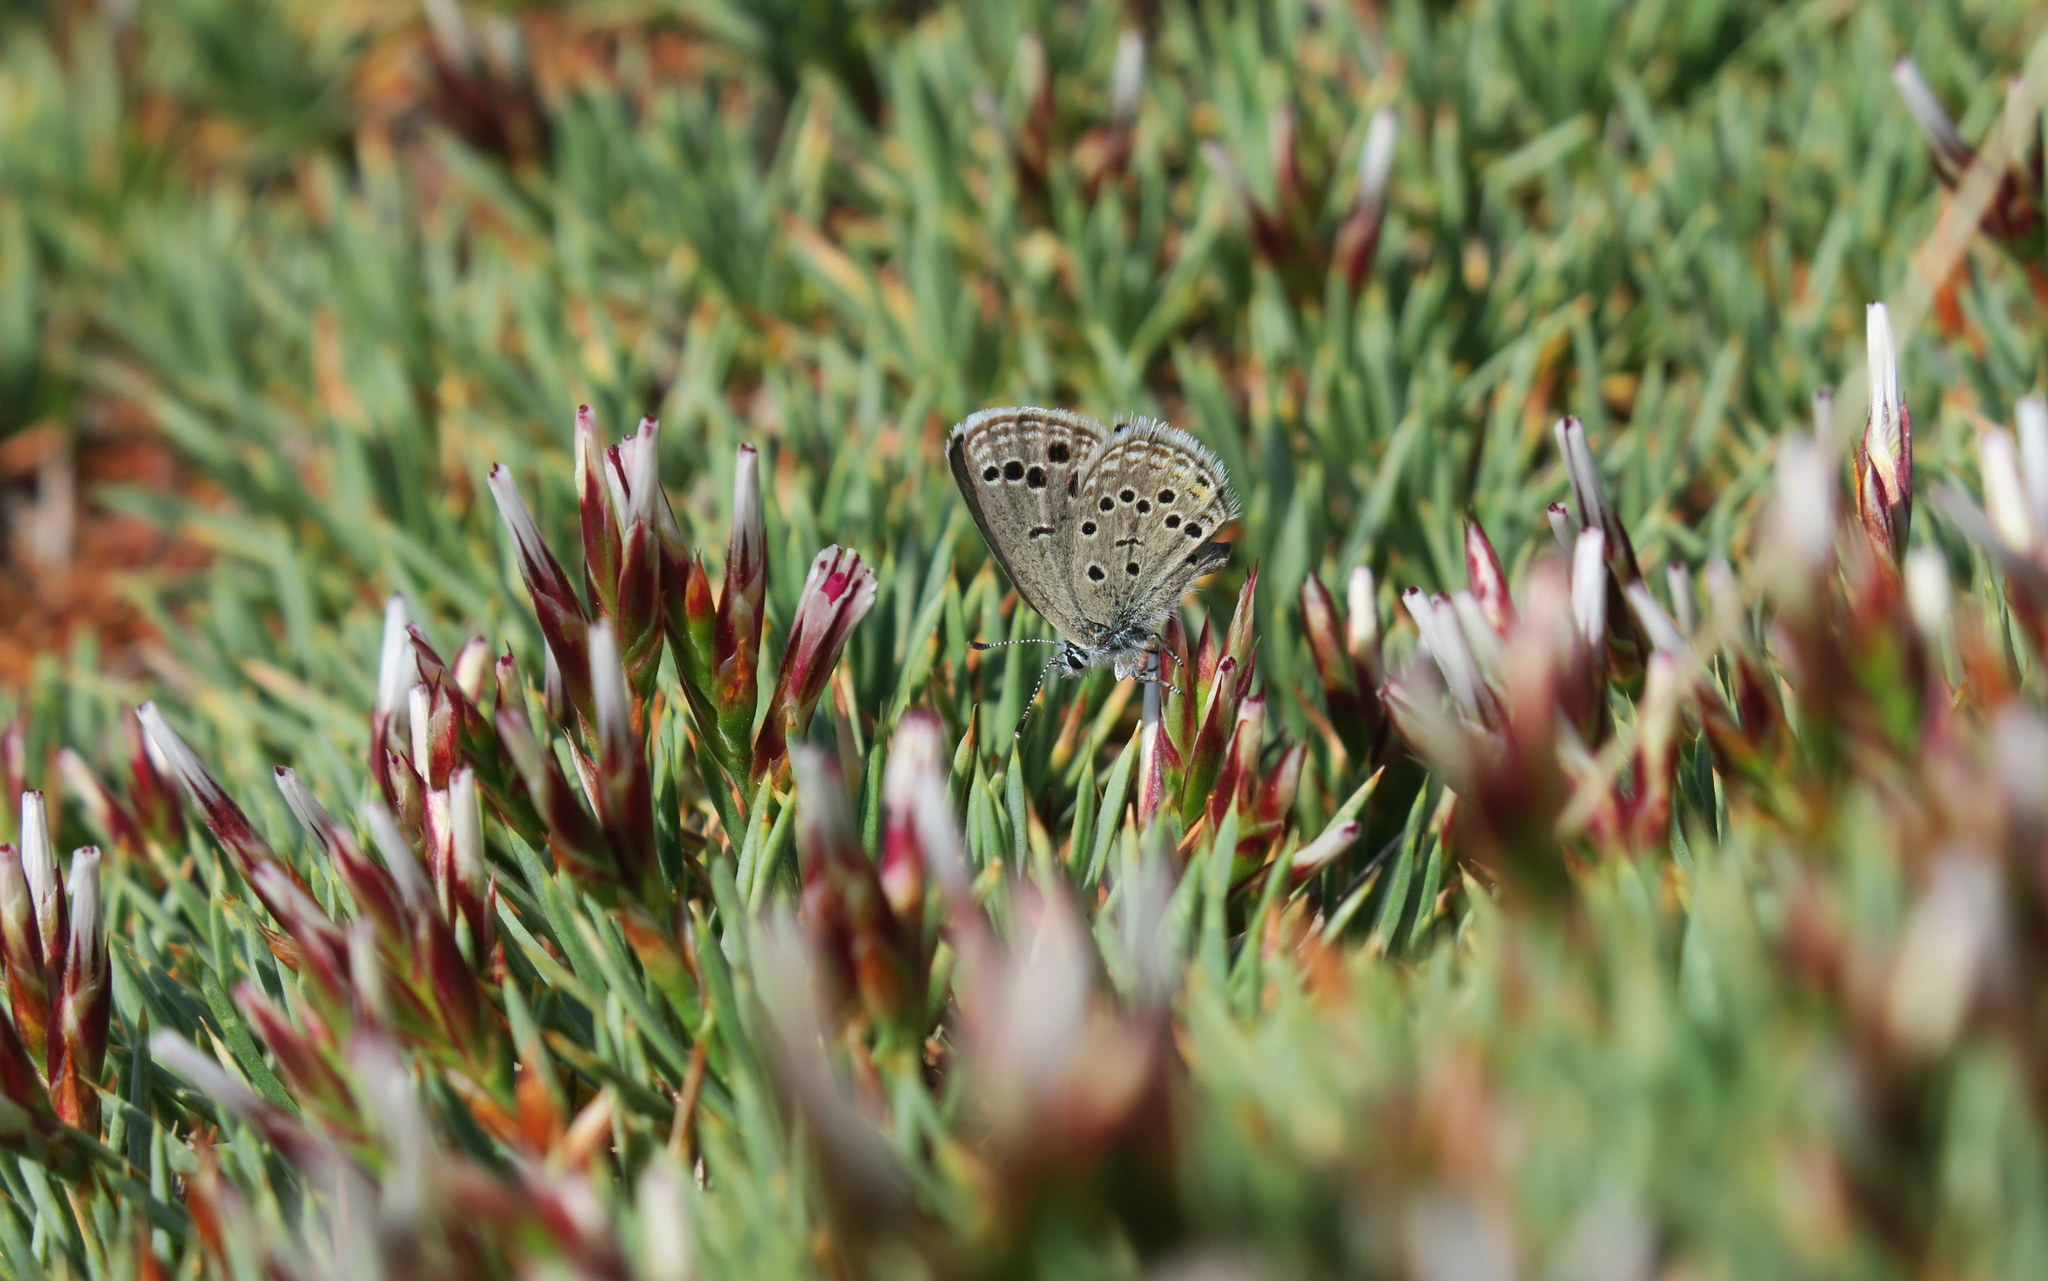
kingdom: Animalia
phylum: Arthropoda
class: Insecta
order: Lepidoptera
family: Lycaenidae
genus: Actizera
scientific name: Actizera panagaea
